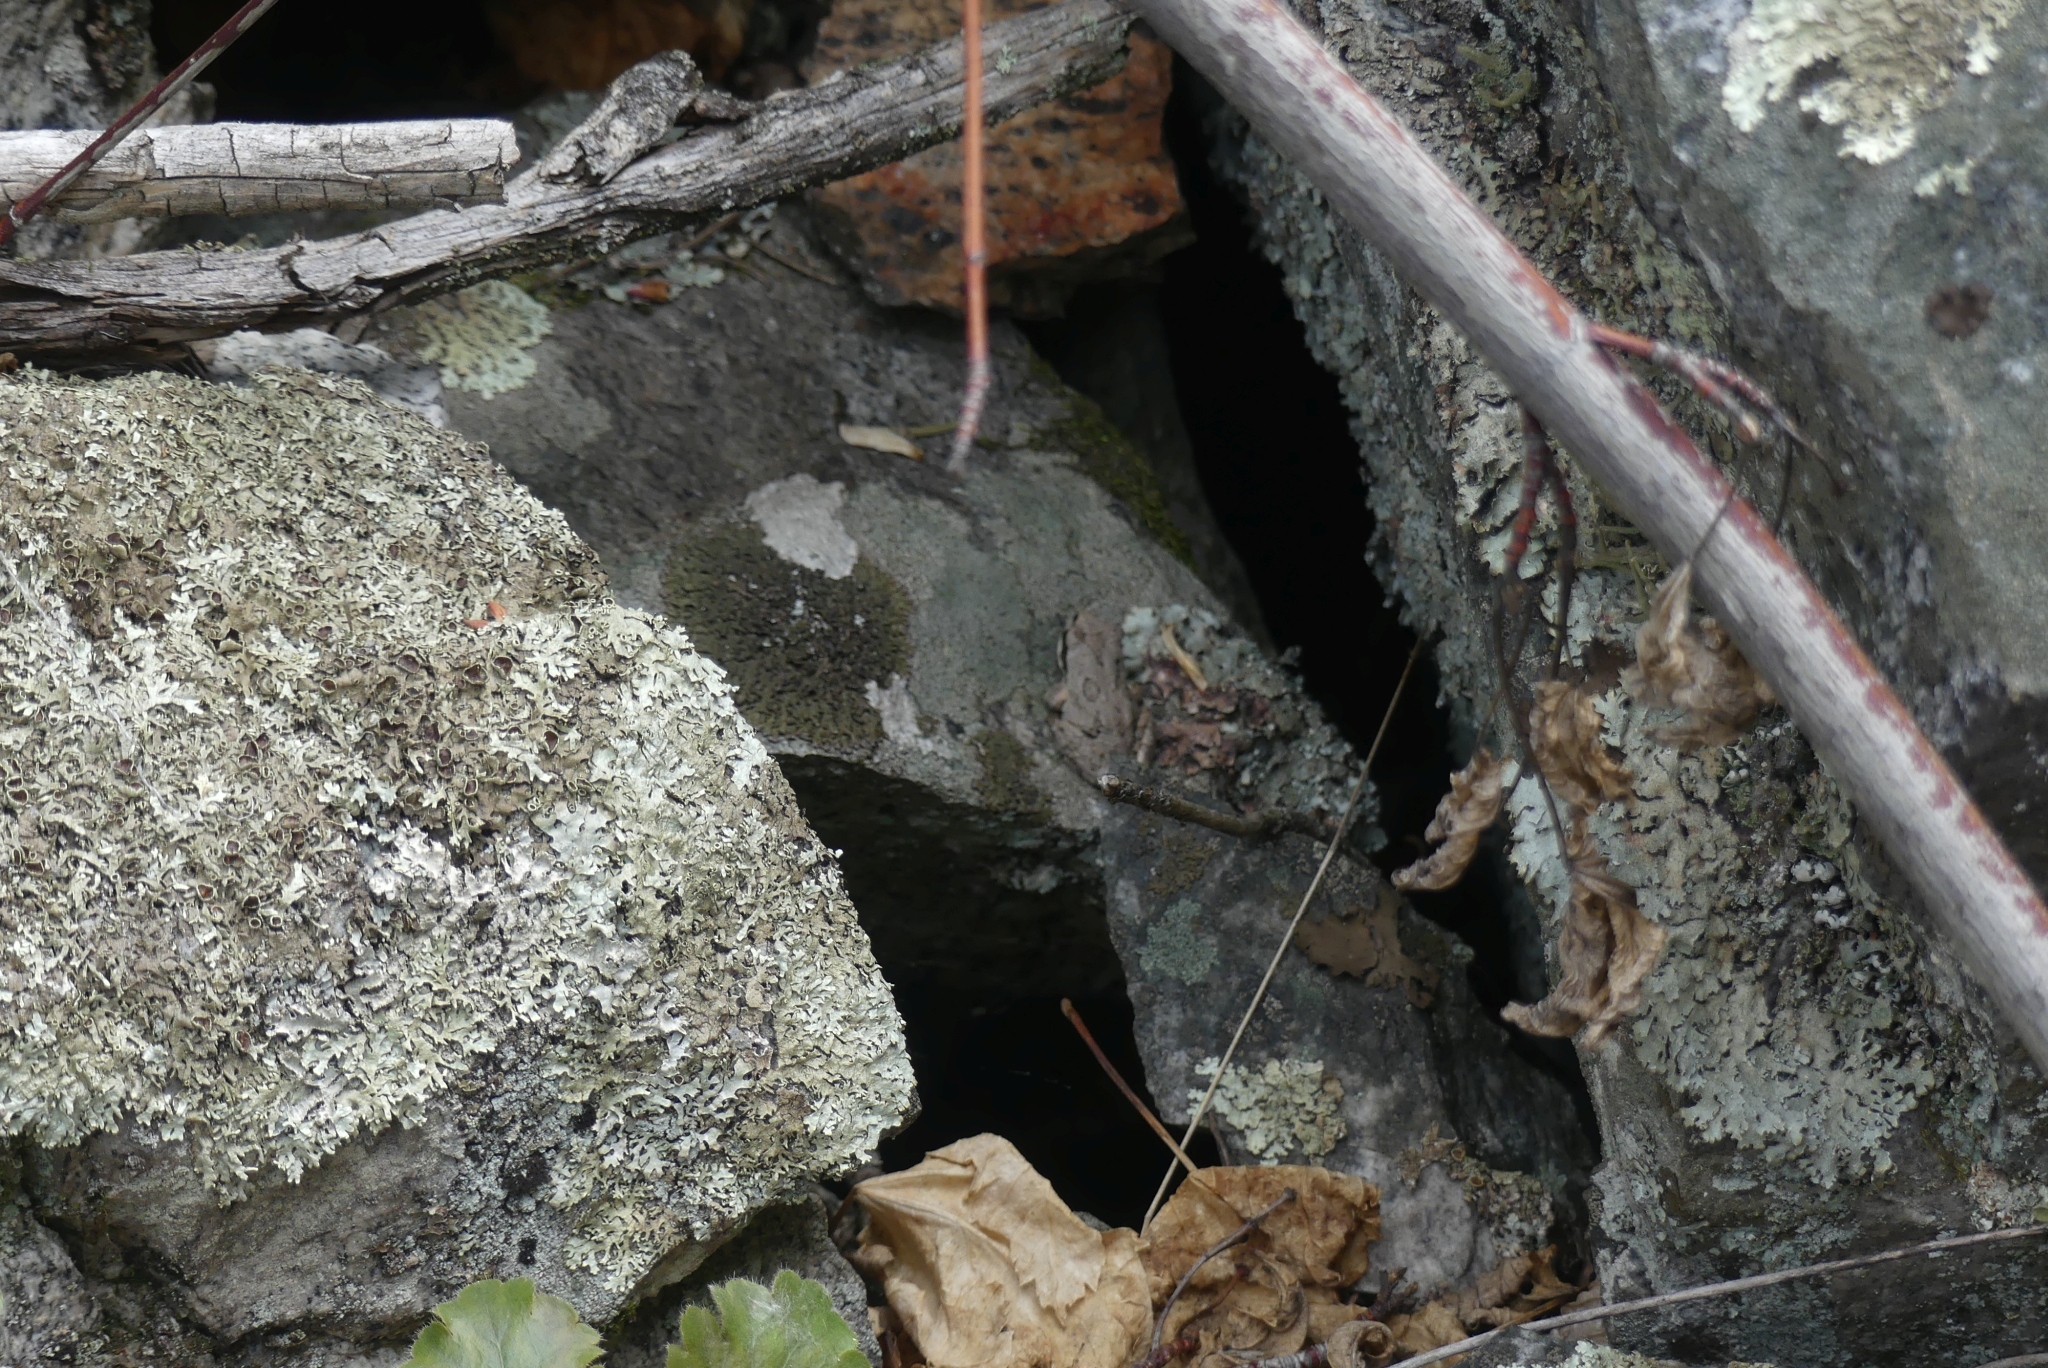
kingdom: Animalia
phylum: Chordata
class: Amphibia
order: Anura
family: Hylidae
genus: Pseudacris
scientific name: Pseudacris regilla
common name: Pacific chorus frog
